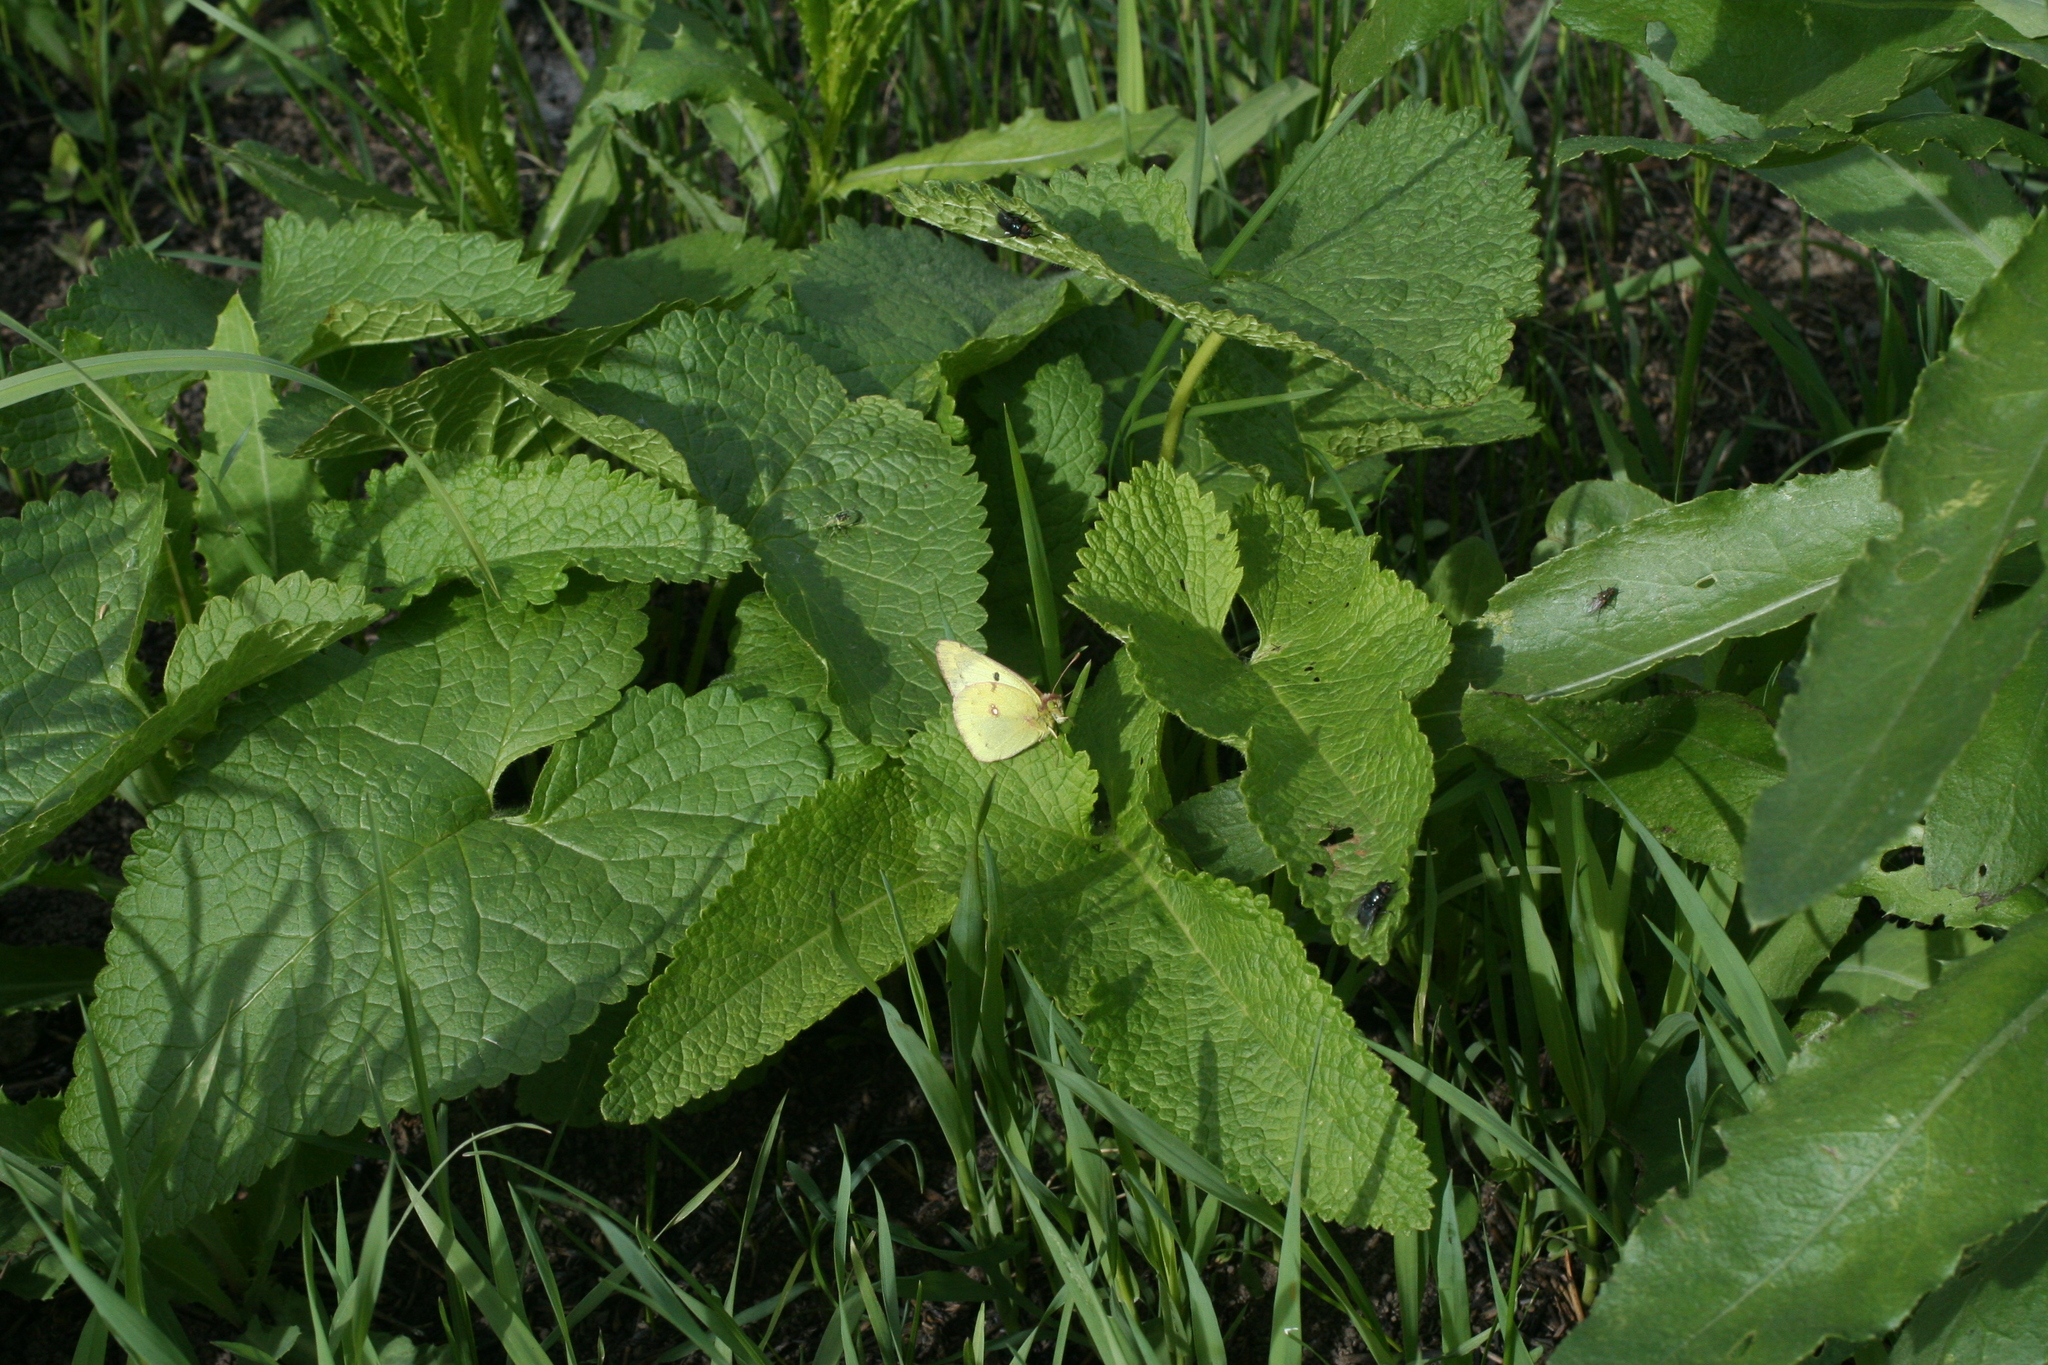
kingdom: Plantae
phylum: Tracheophyta
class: Magnoliopsida
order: Lamiales
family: Lamiaceae
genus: Phlomoides
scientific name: Phlomoides tuberosa
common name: Tuberous jerusalem sage
